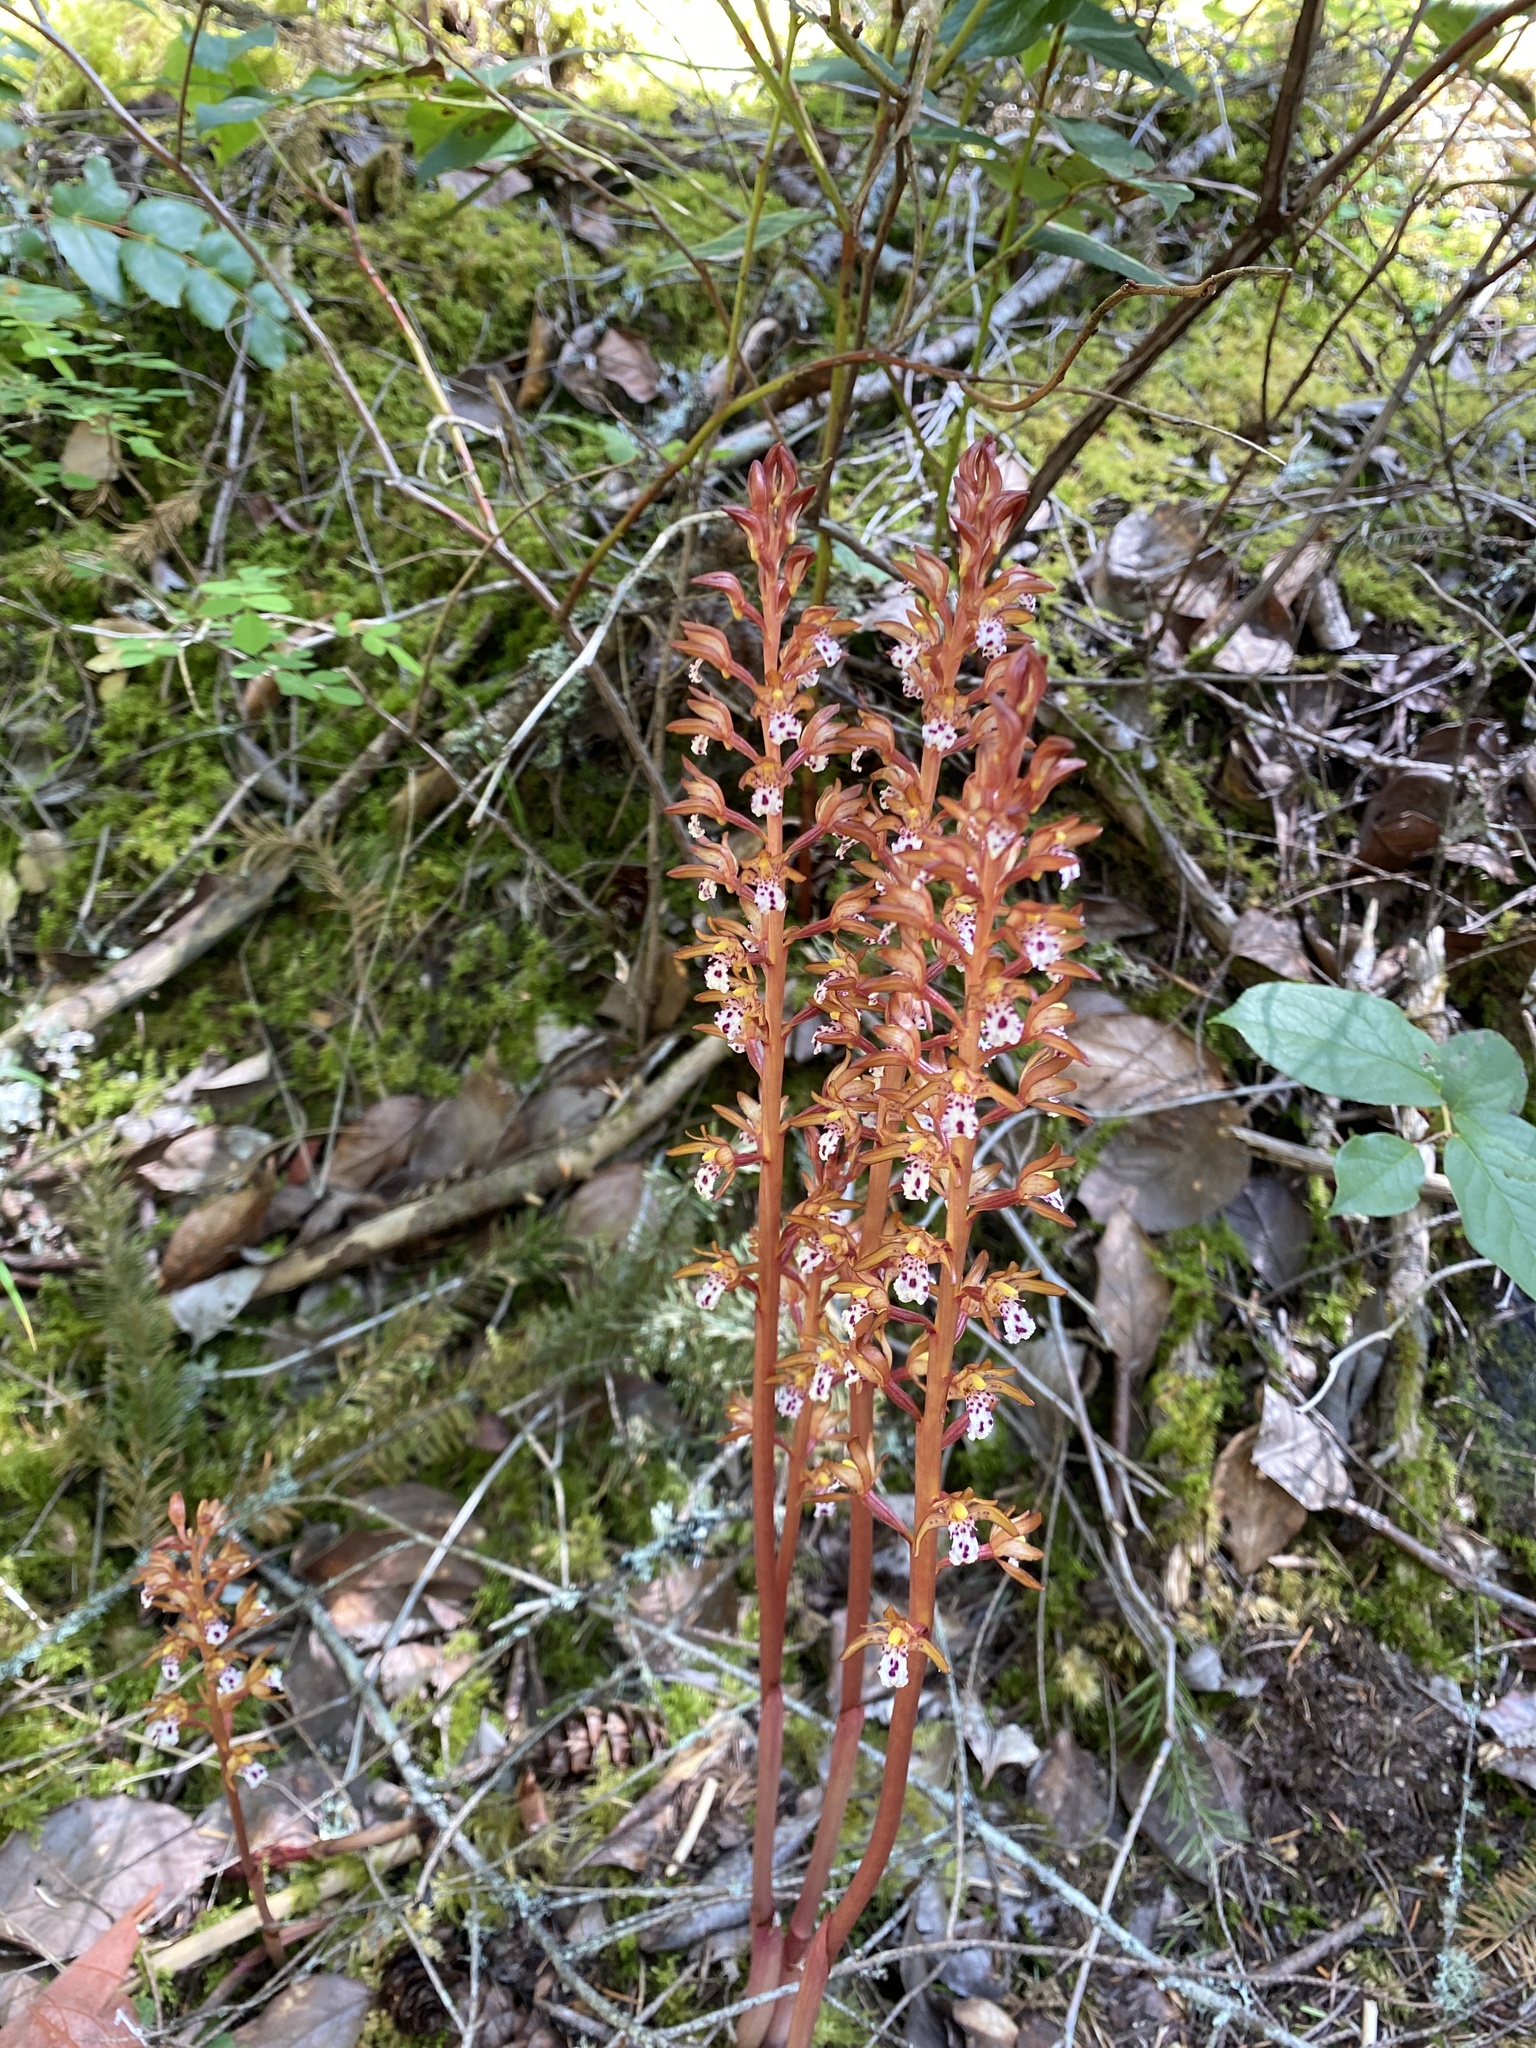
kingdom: Plantae
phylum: Tracheophyta
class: Liliopsida
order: Asparagales
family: Orchidaceae
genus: Corallorhiza
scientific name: Corallorhiza maculata
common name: Spotted coralroot
